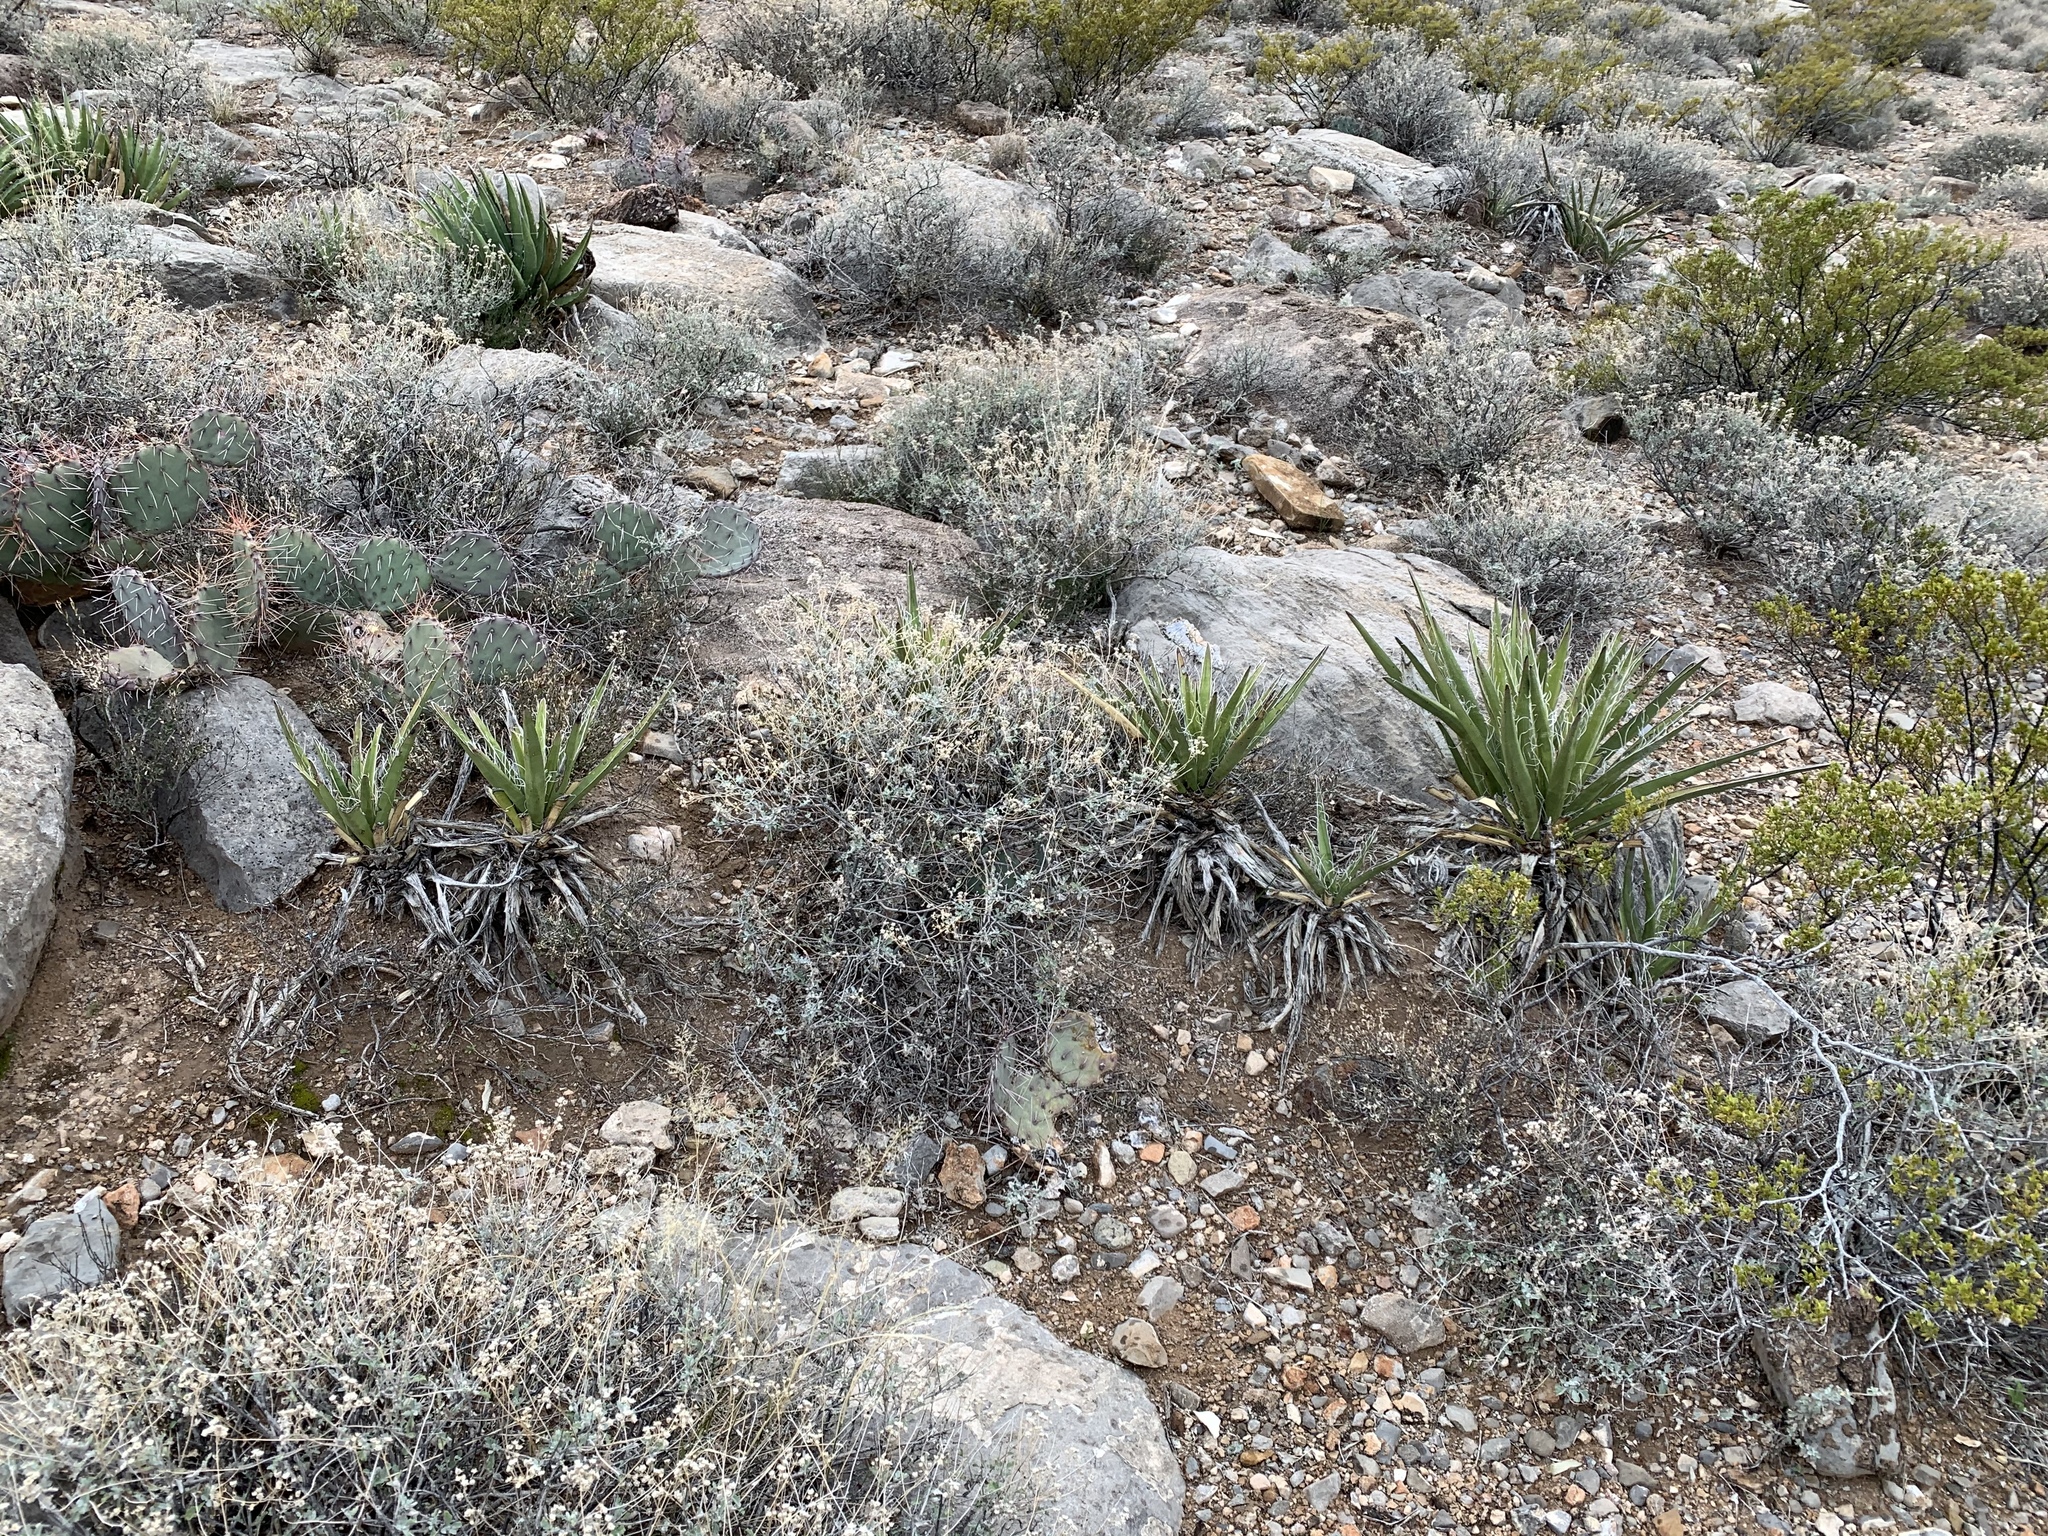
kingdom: Plantae
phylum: Tracheophyta
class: Liliopsida
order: Asparagales
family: Asparagaceae
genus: Yucca
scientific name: Yucca baccata
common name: Banana yucca
